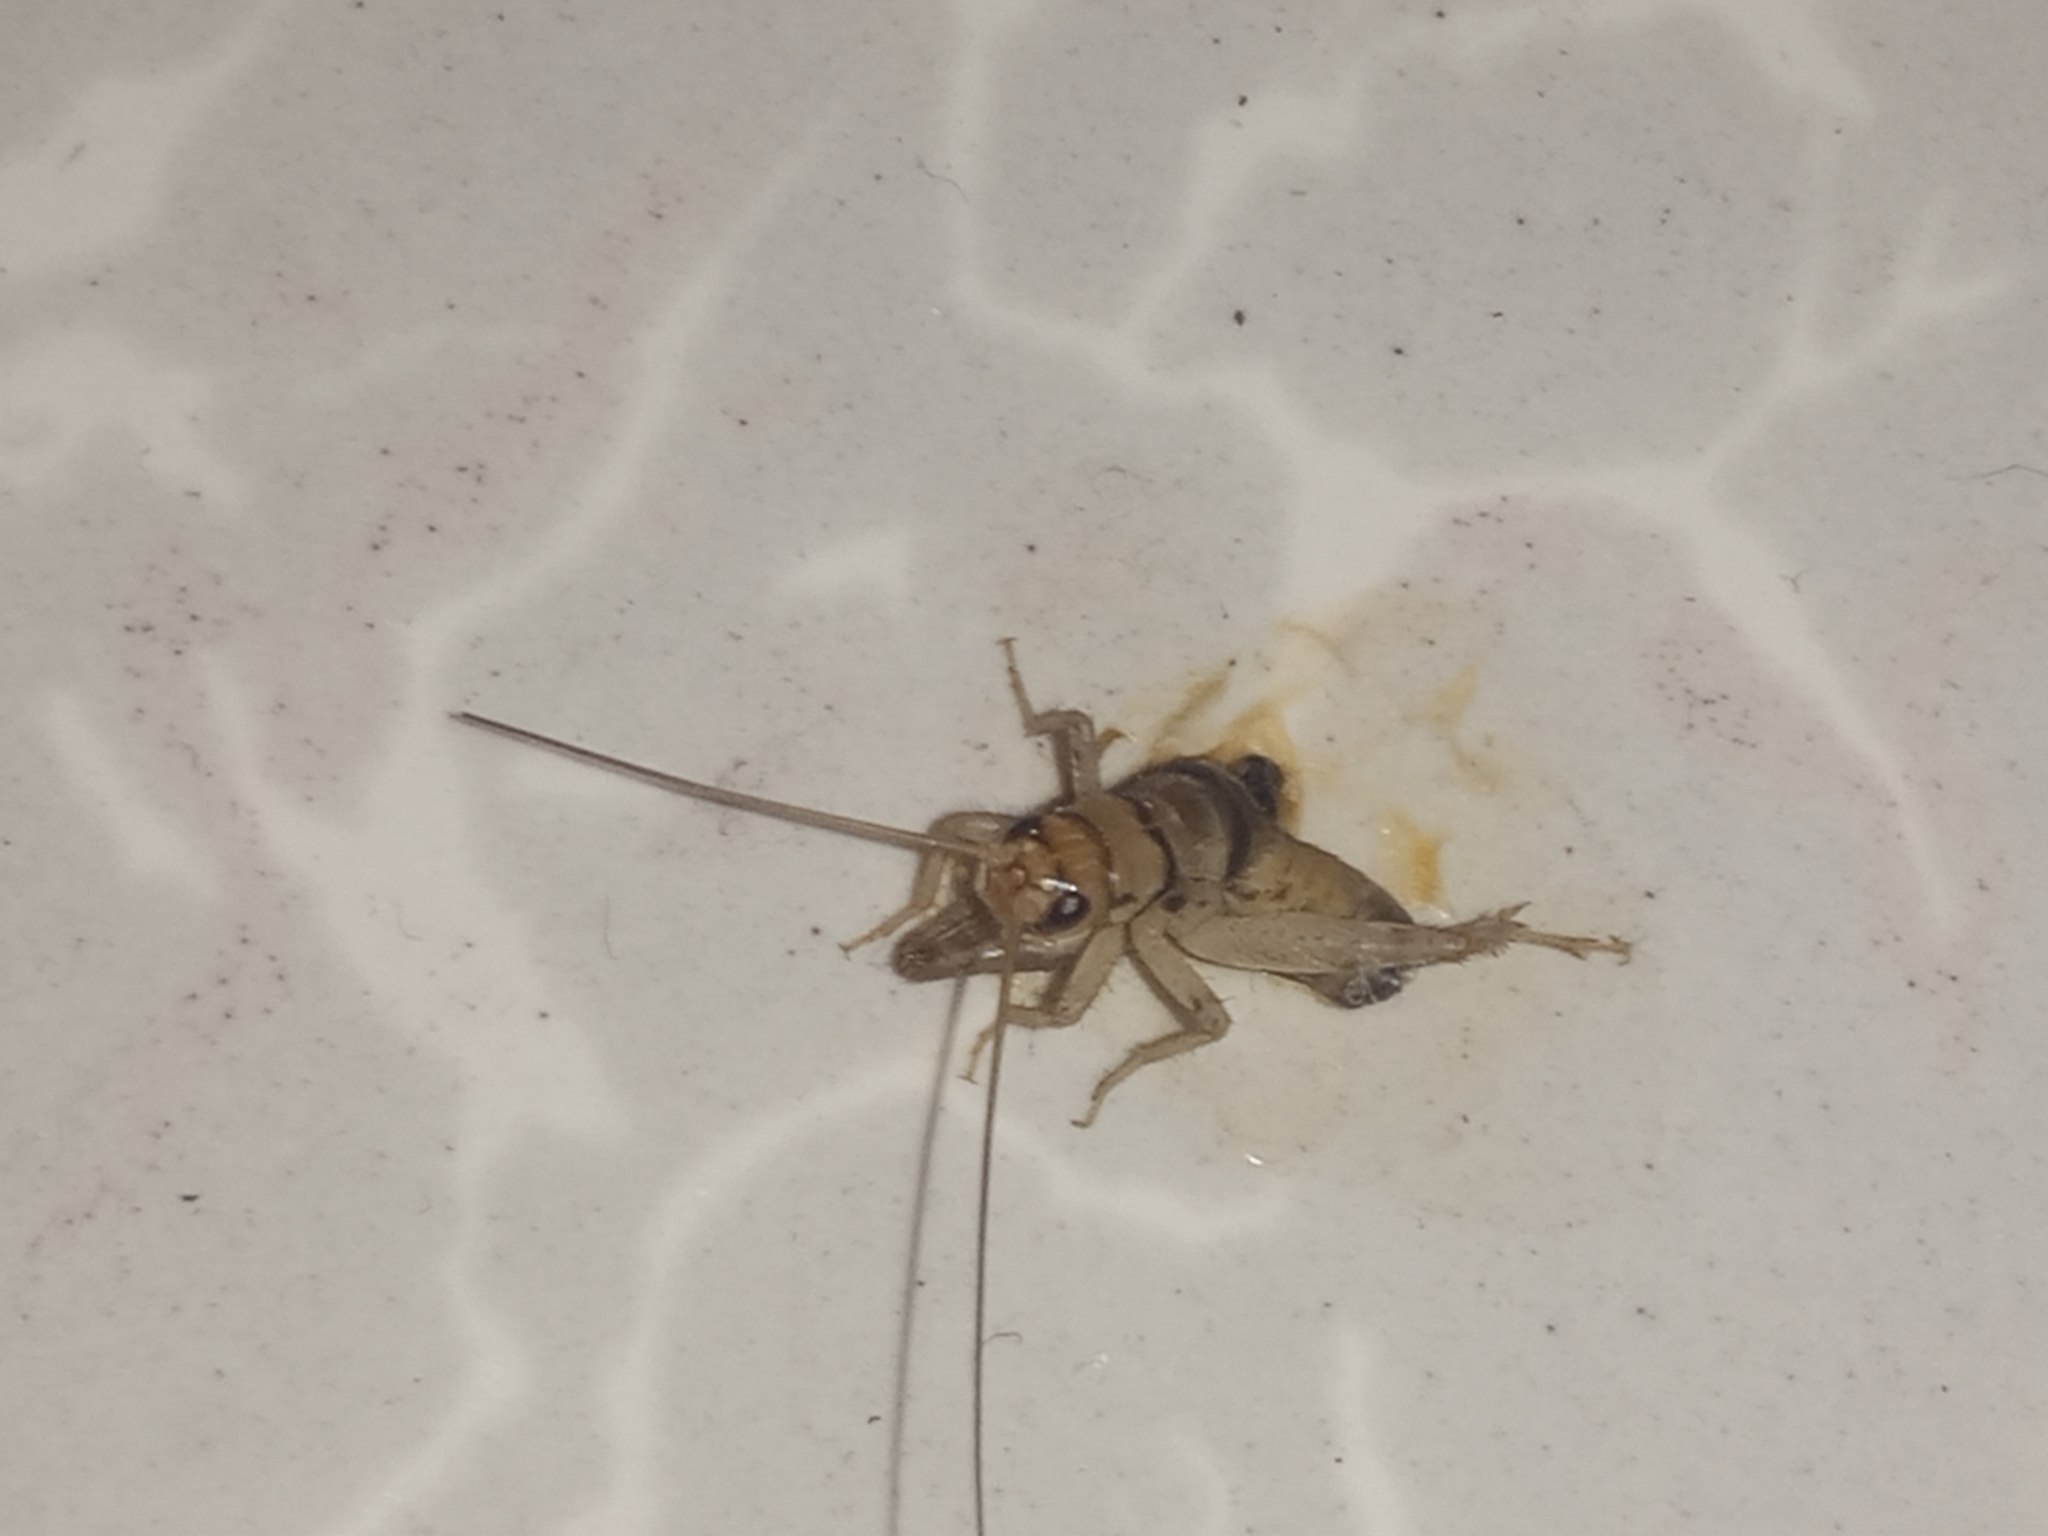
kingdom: Animalia
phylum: Arthropoda
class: Insecta
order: Orthoptera
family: Gryllidae
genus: Gryllodes
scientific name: Gryllodes sigillatus
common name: Tropical house cricket
